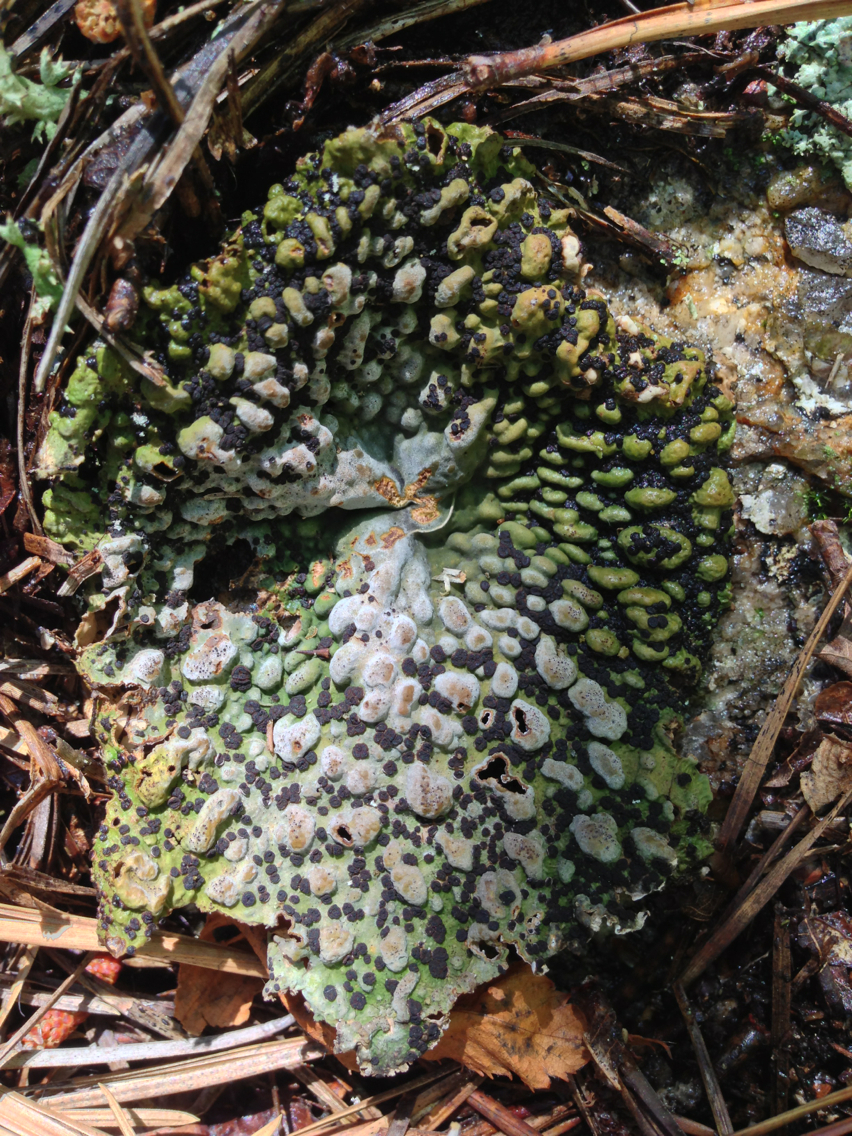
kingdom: Fungi
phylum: Ascomycota
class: Lecanoromycetes
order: Umbilicariales
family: Umbilicariaceae
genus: Lasallia
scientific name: Lasallia papulosa
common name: Common toadskin lichen
